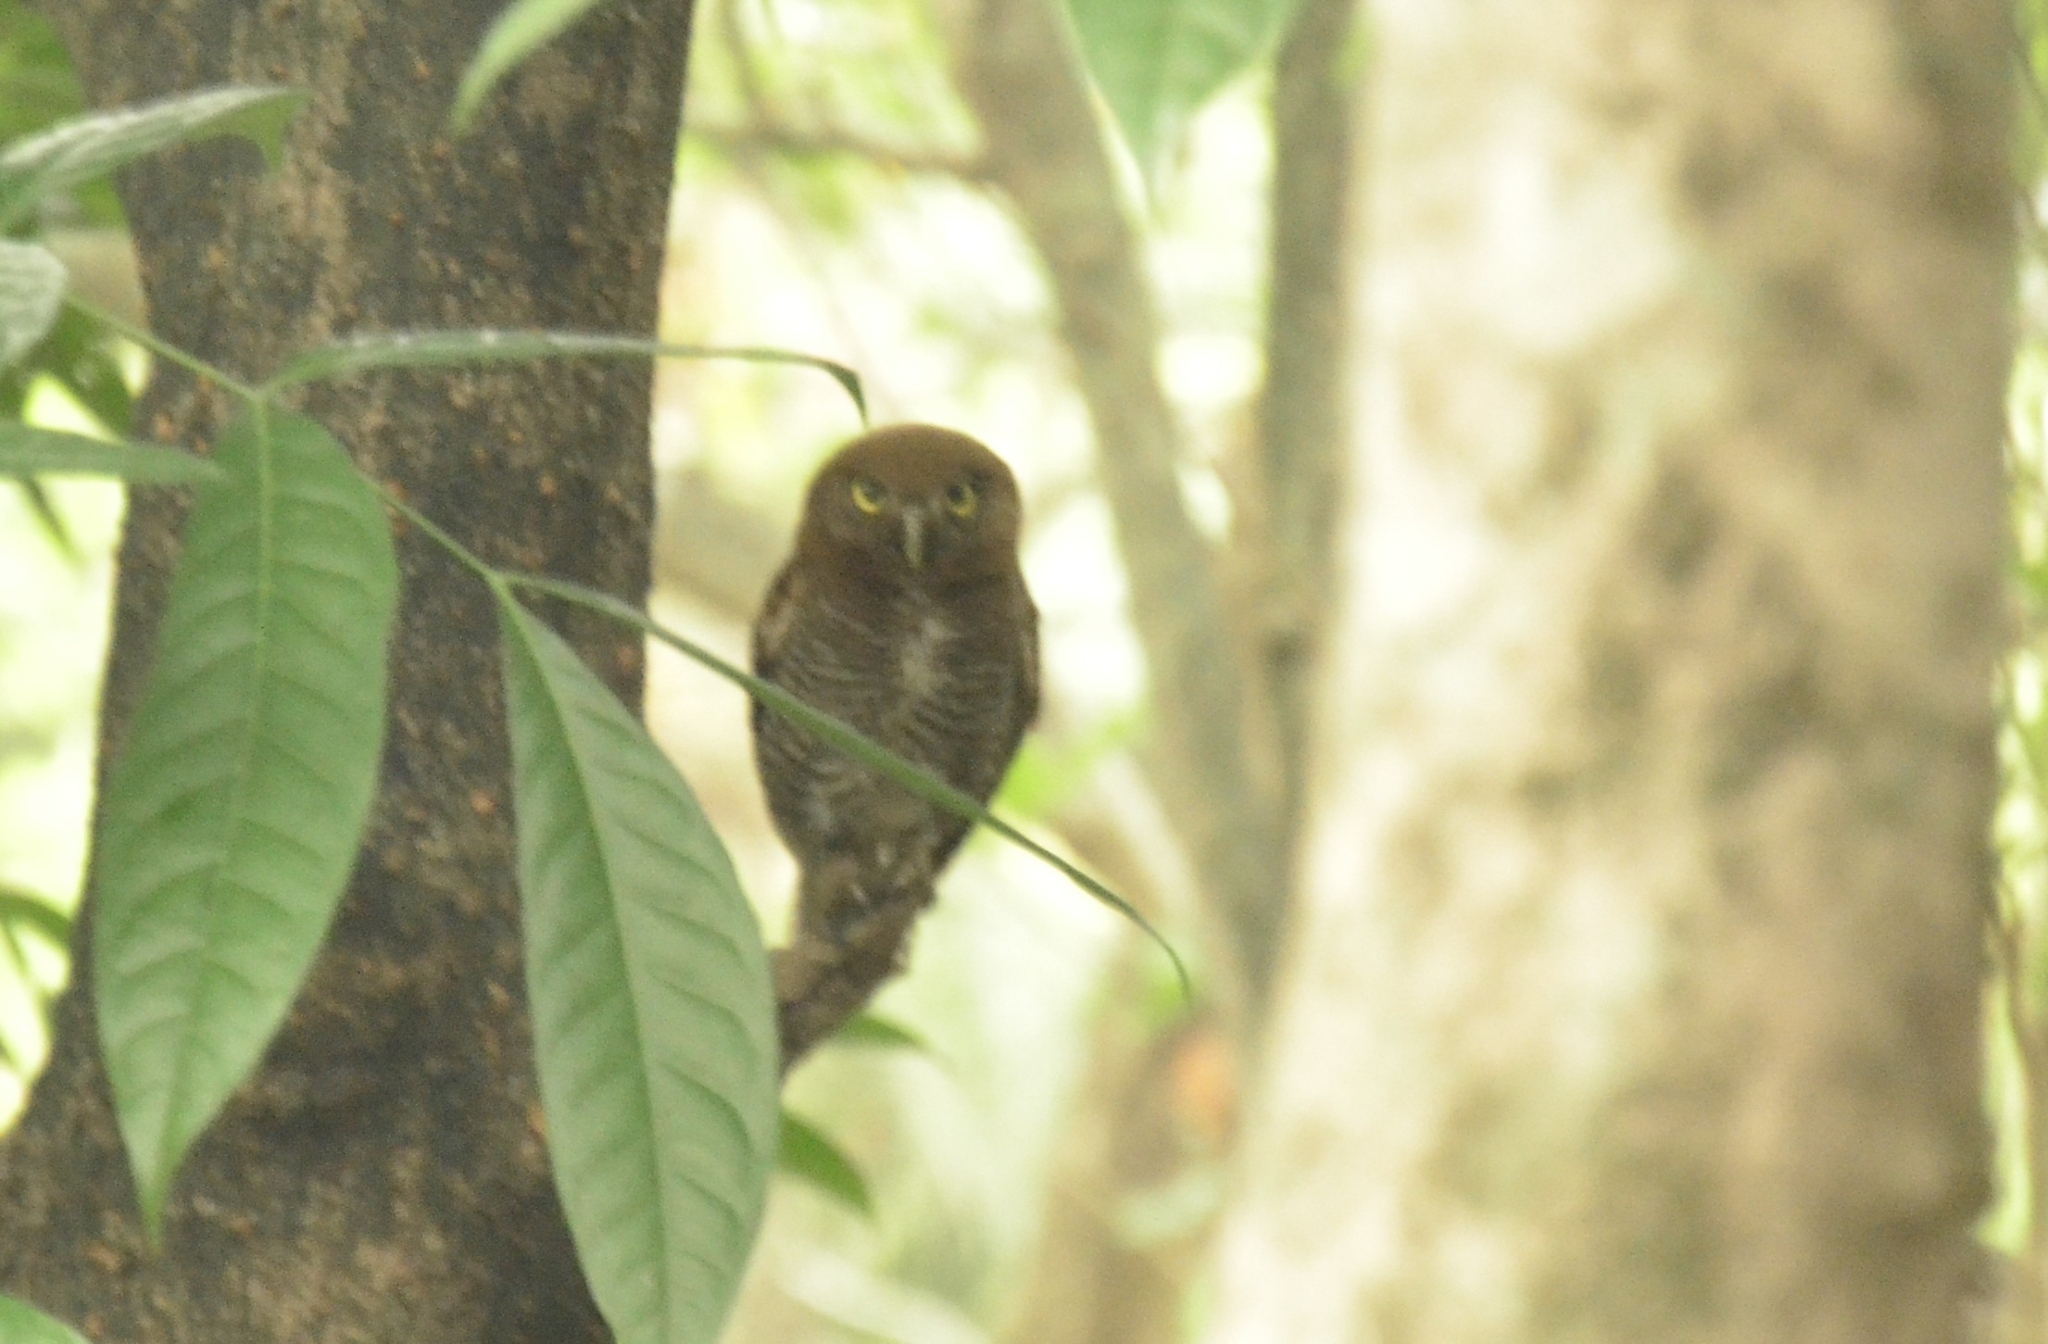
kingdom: Animalia
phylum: Chordata
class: Aves
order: Strigiformes
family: Strigidae
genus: Glaucidium
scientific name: Glaucidium radiatum
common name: Jungle owlet
